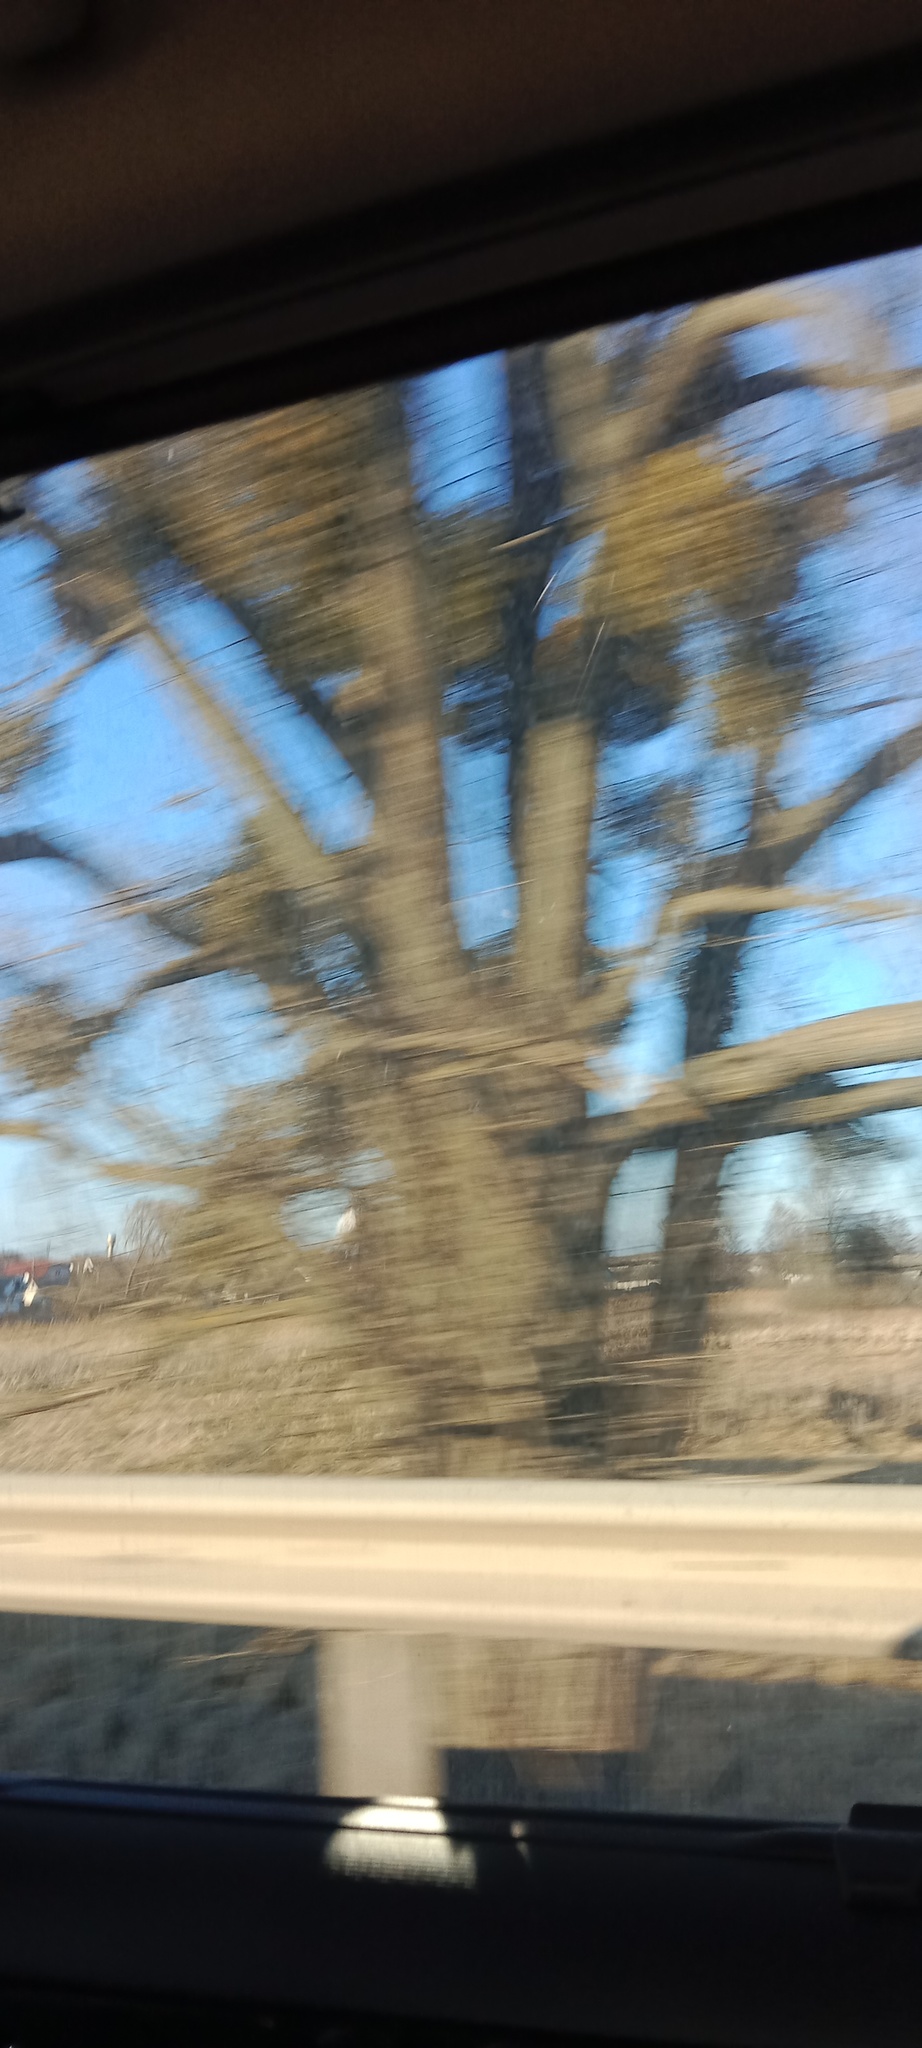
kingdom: Plantae
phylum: Tracheophyta
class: Magnoliopsida
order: Santalales
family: Viscaceae
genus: Viscum
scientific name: Viscum album
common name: Mistletoe
